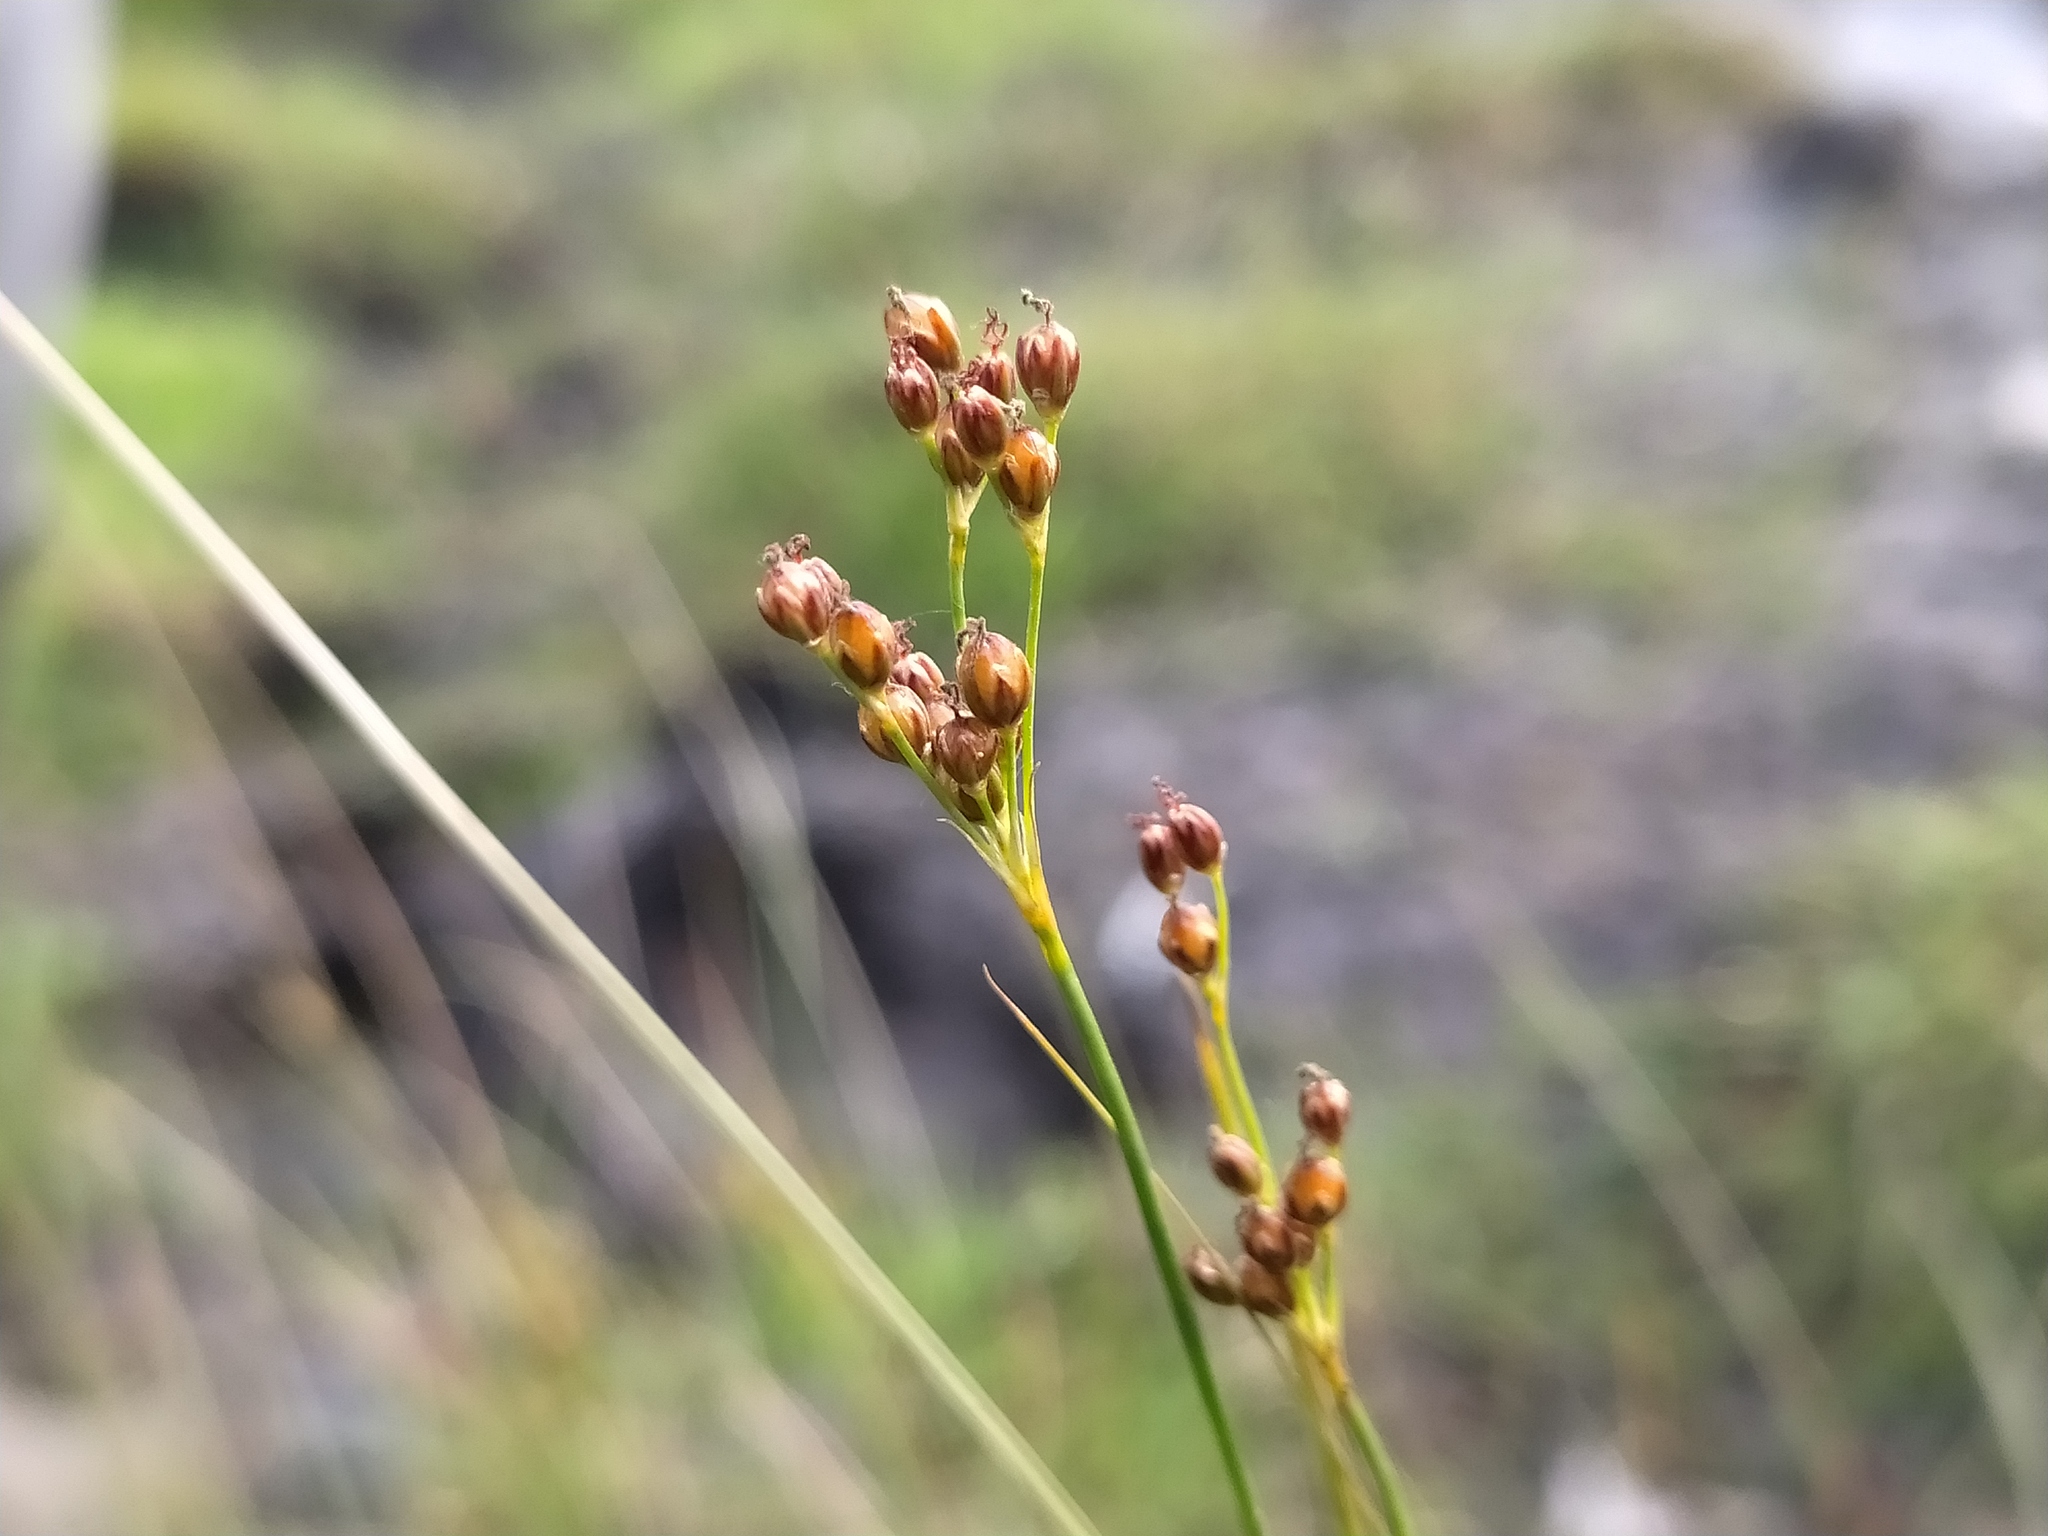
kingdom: Plantae
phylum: Tracheophyta
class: Liliopsida
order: Poales
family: Juncaceae
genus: Juncus
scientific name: Juncus compressus
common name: Round-fruited rush
